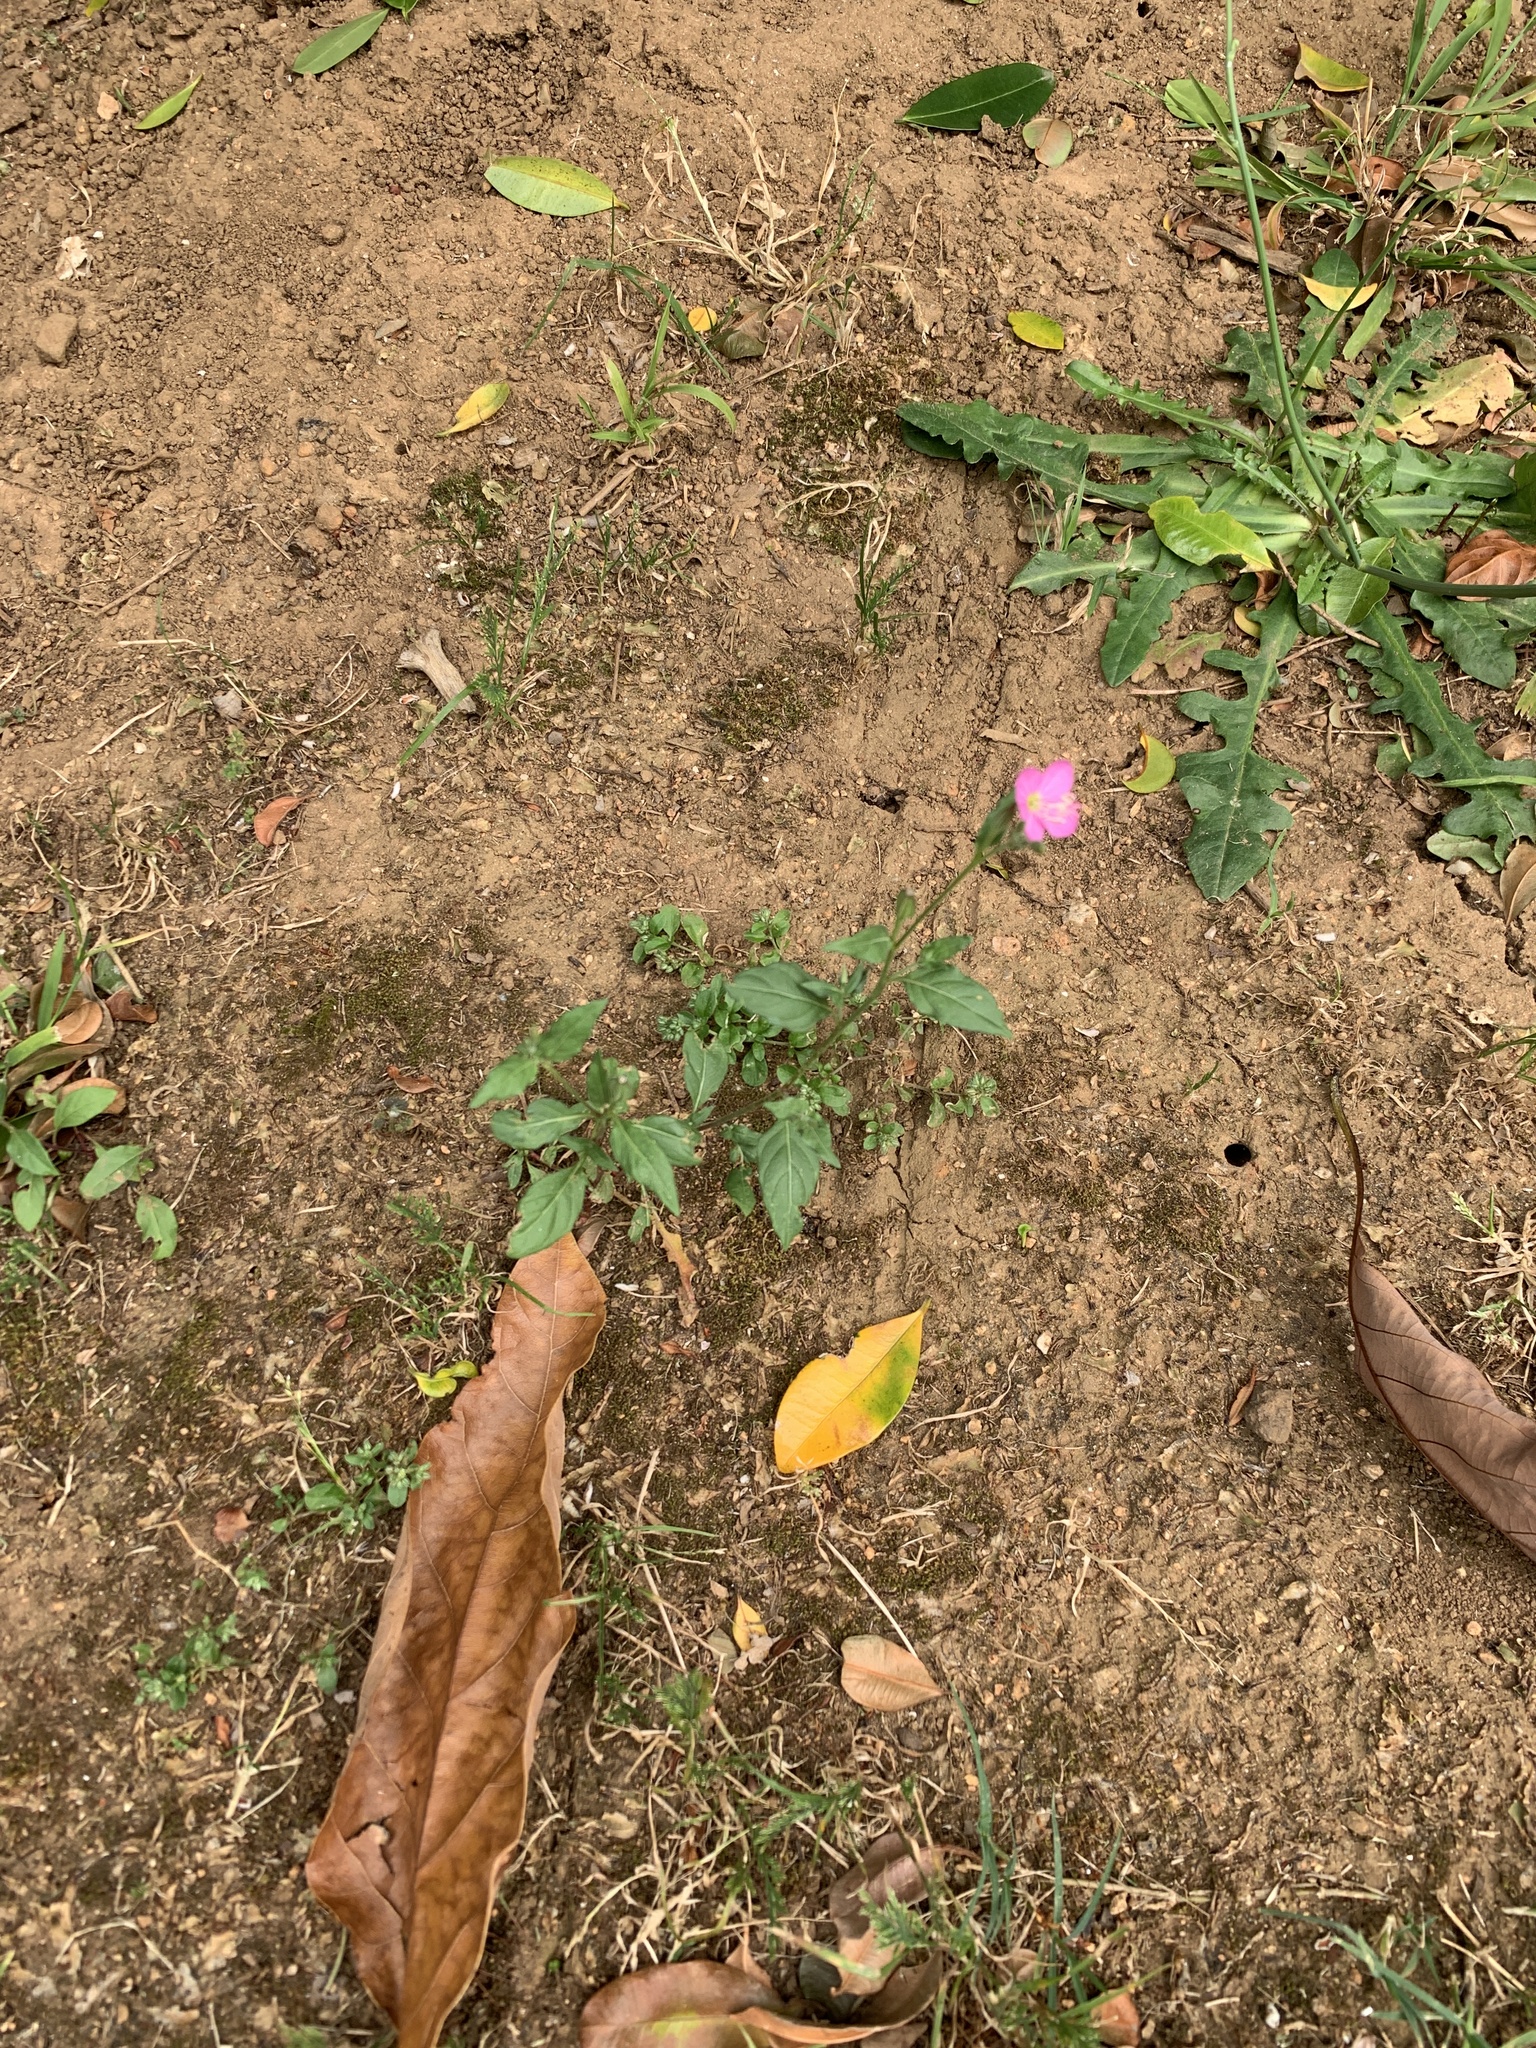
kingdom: Plantae
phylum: Tracheophyta
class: Magnoliopsida
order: Myrtales
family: Onagraceae
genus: Oenothera
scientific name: Oenothera rosea
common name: Rosy evening-primrose
